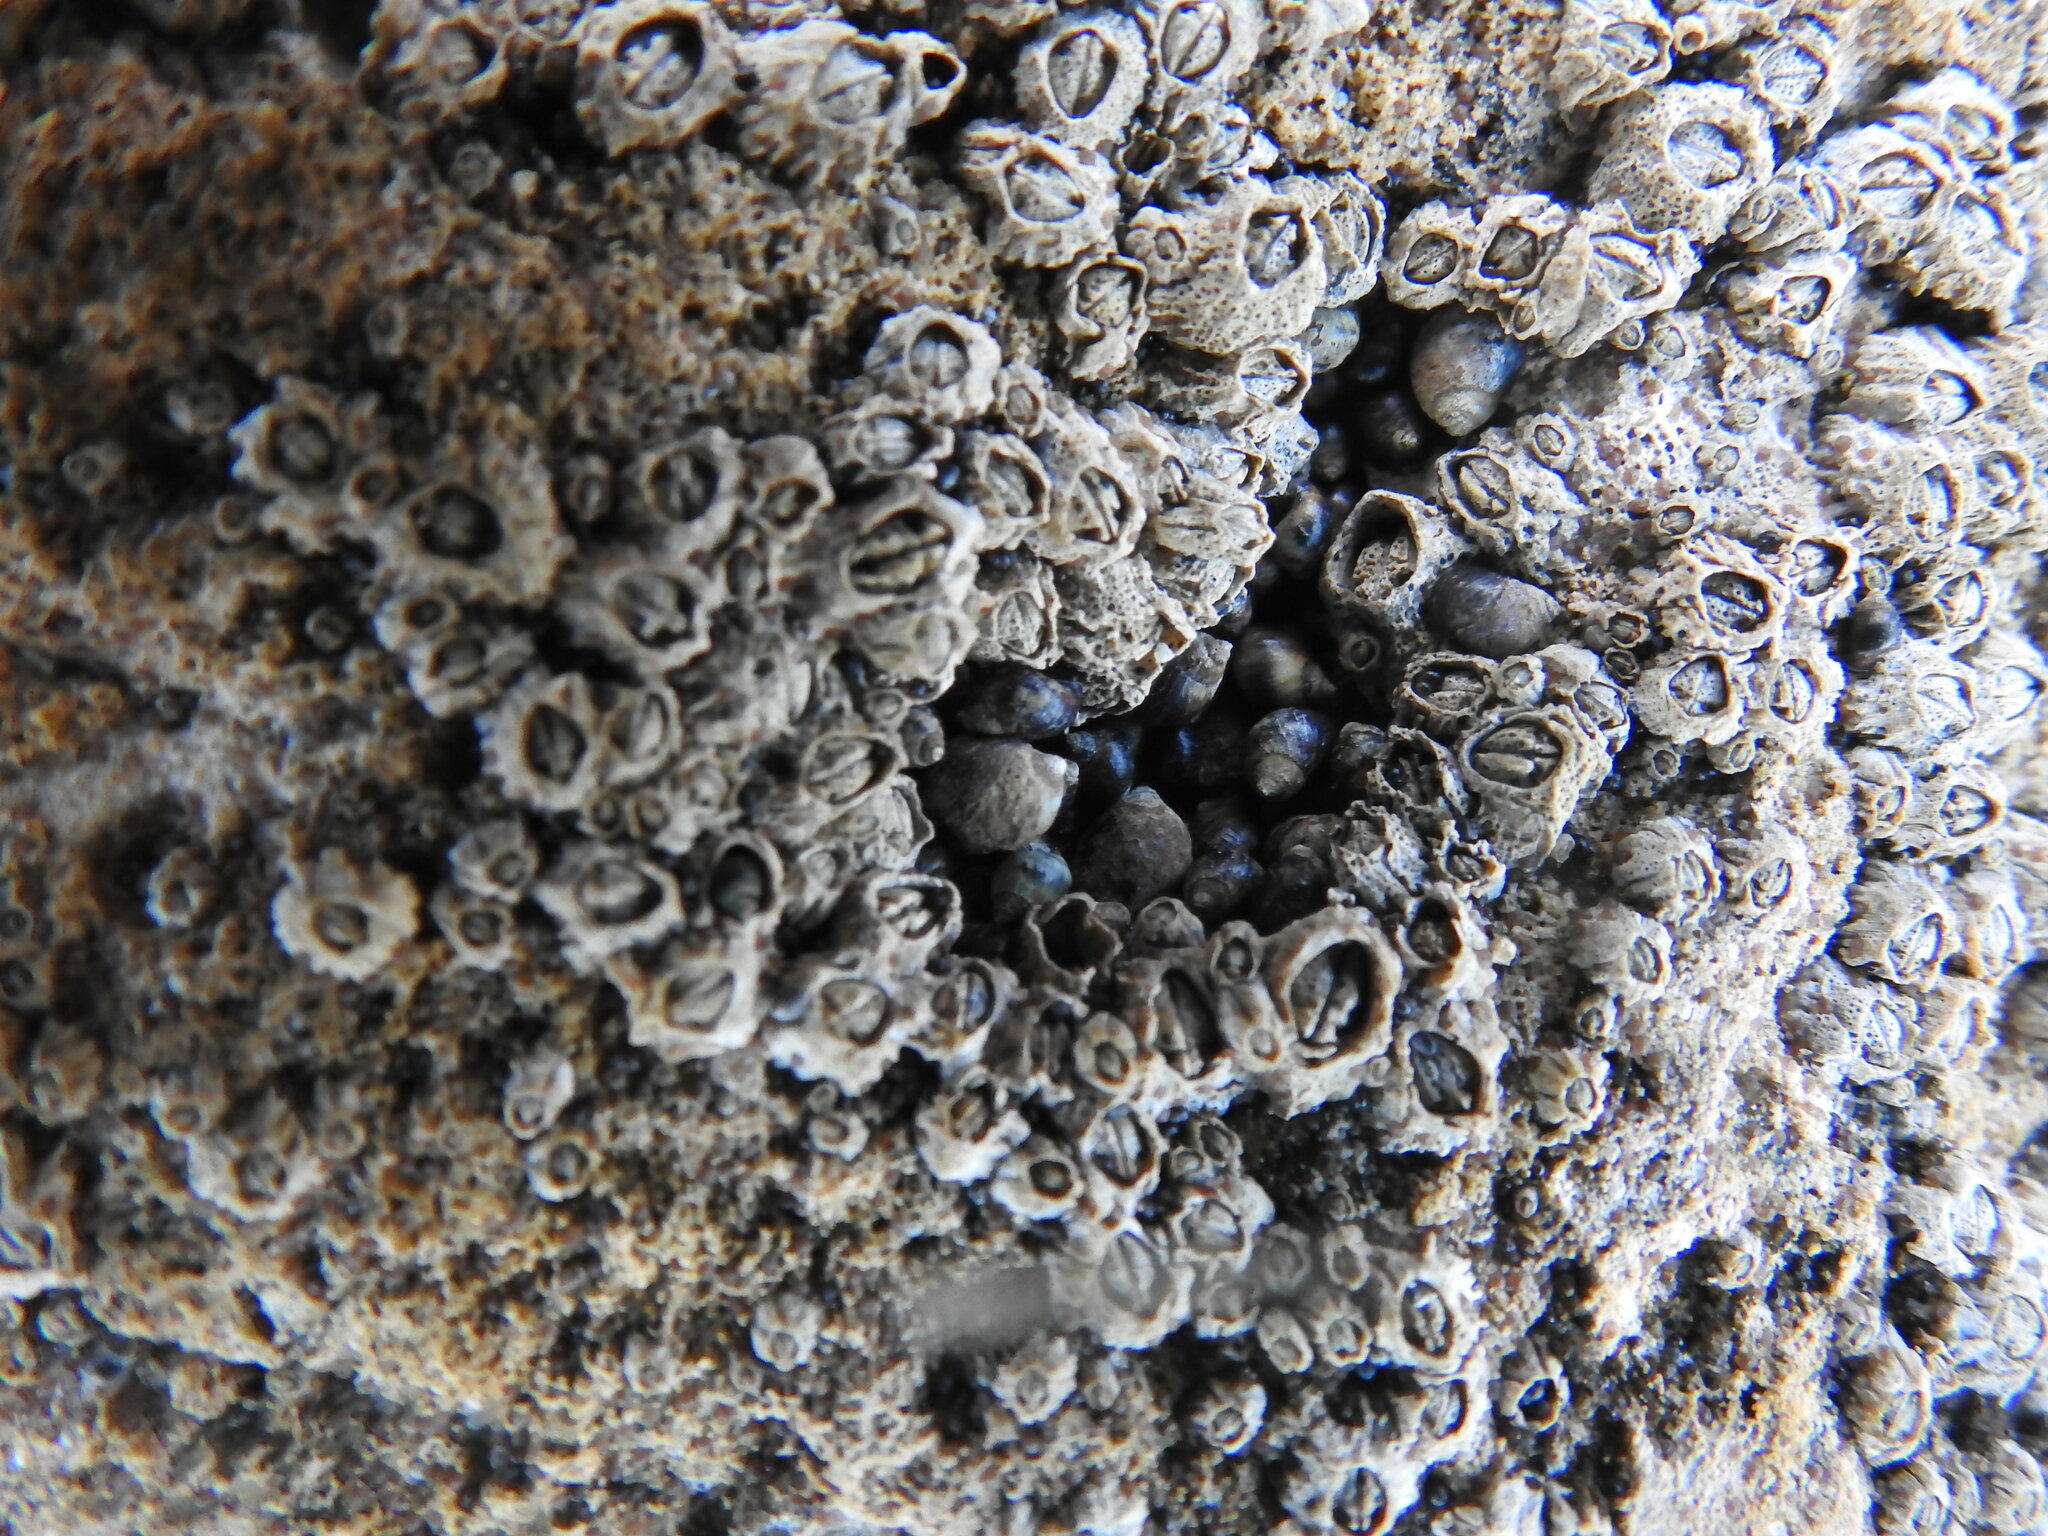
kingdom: Animalia
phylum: Mollusca
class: Gastropoda
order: Littorinimorpha
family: Littorinidae
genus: Melarhaphe
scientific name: Melarhaphe neritoides
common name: Small periwinkle
